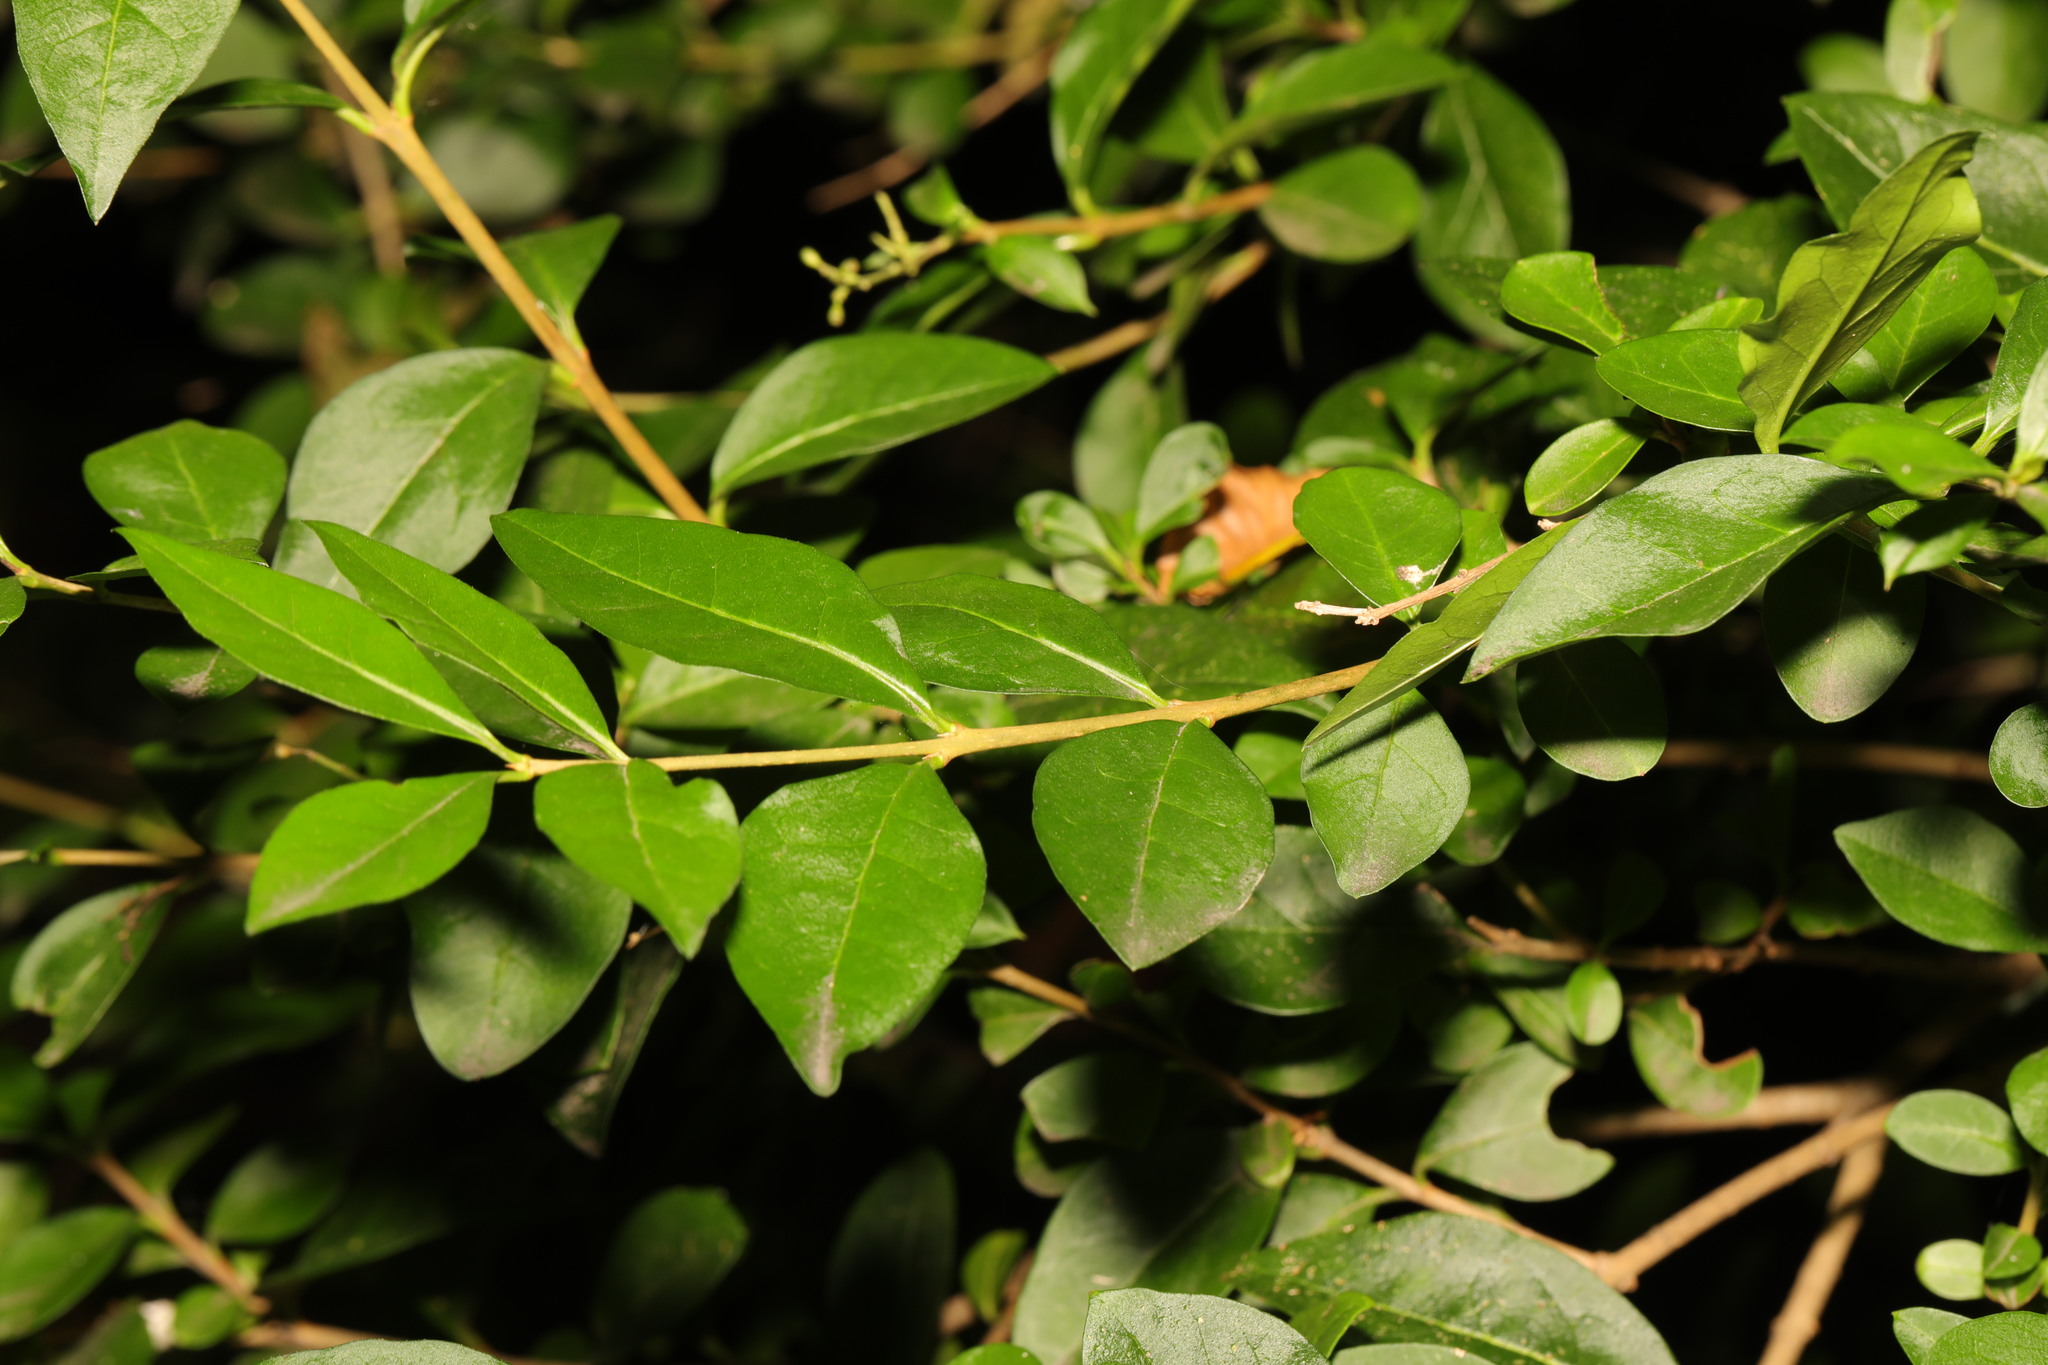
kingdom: Plantae
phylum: Tracheophyta
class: Magnoliopsida
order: Lamiales
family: Oleaceae
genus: Ligustrum
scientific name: Ligustrum ovalifolium
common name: California privet
